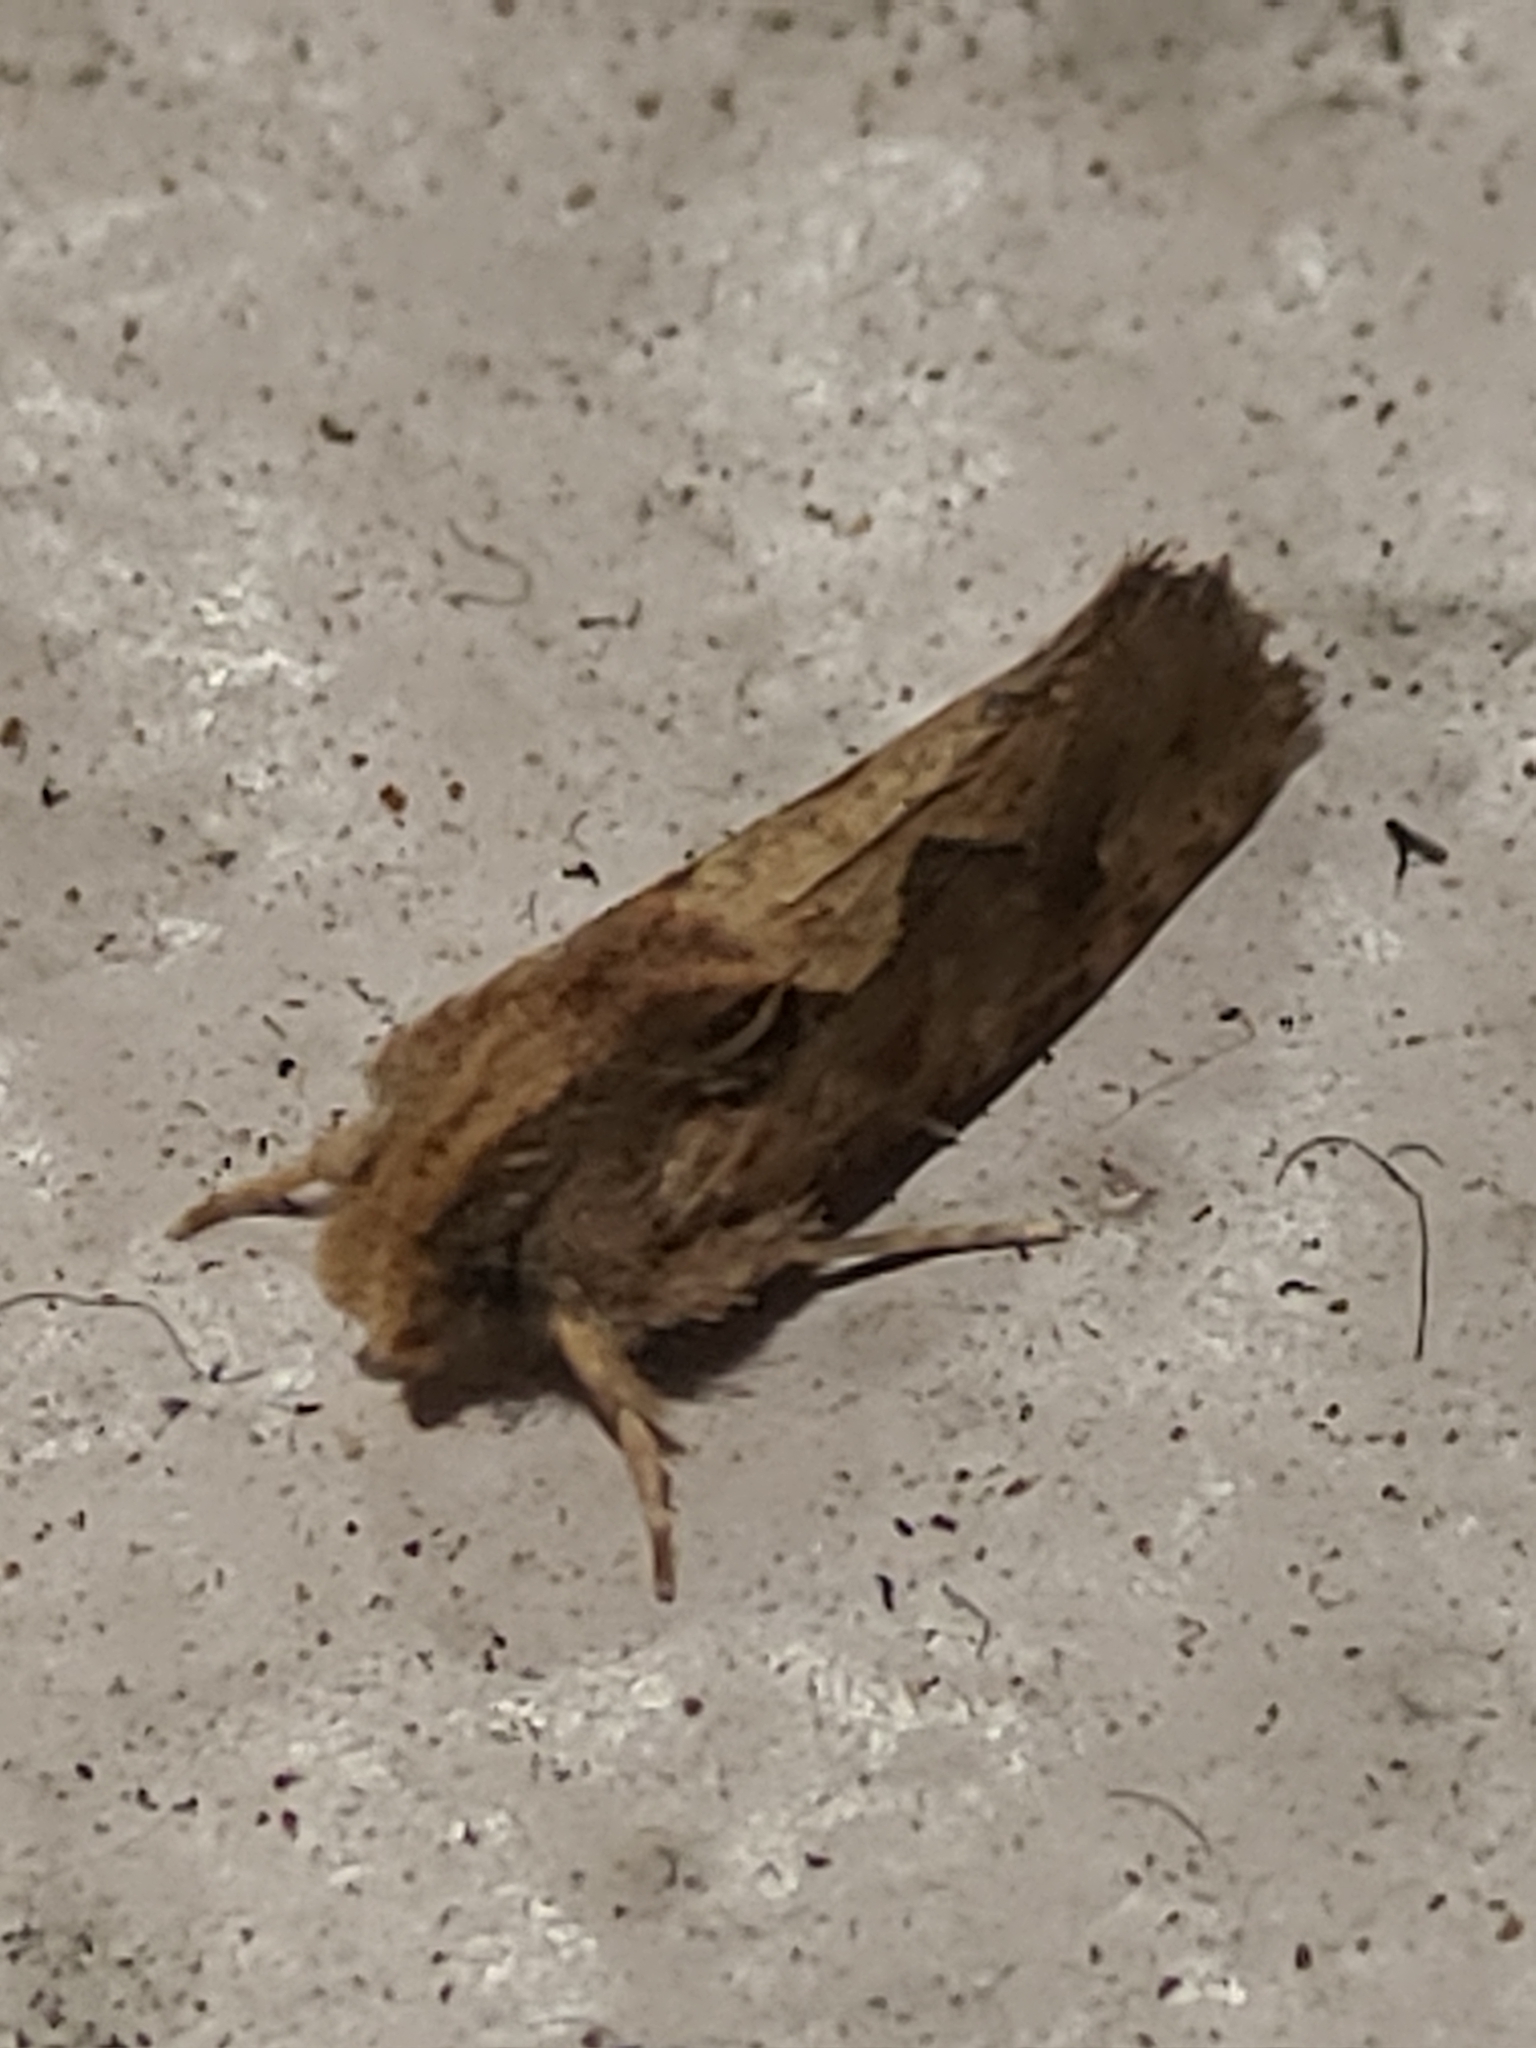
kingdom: Animalia
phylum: Arthropoda
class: Insecta
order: Lepidoptera
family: Tineidae
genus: Acrolophus
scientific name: Acrolophus walsinghami
